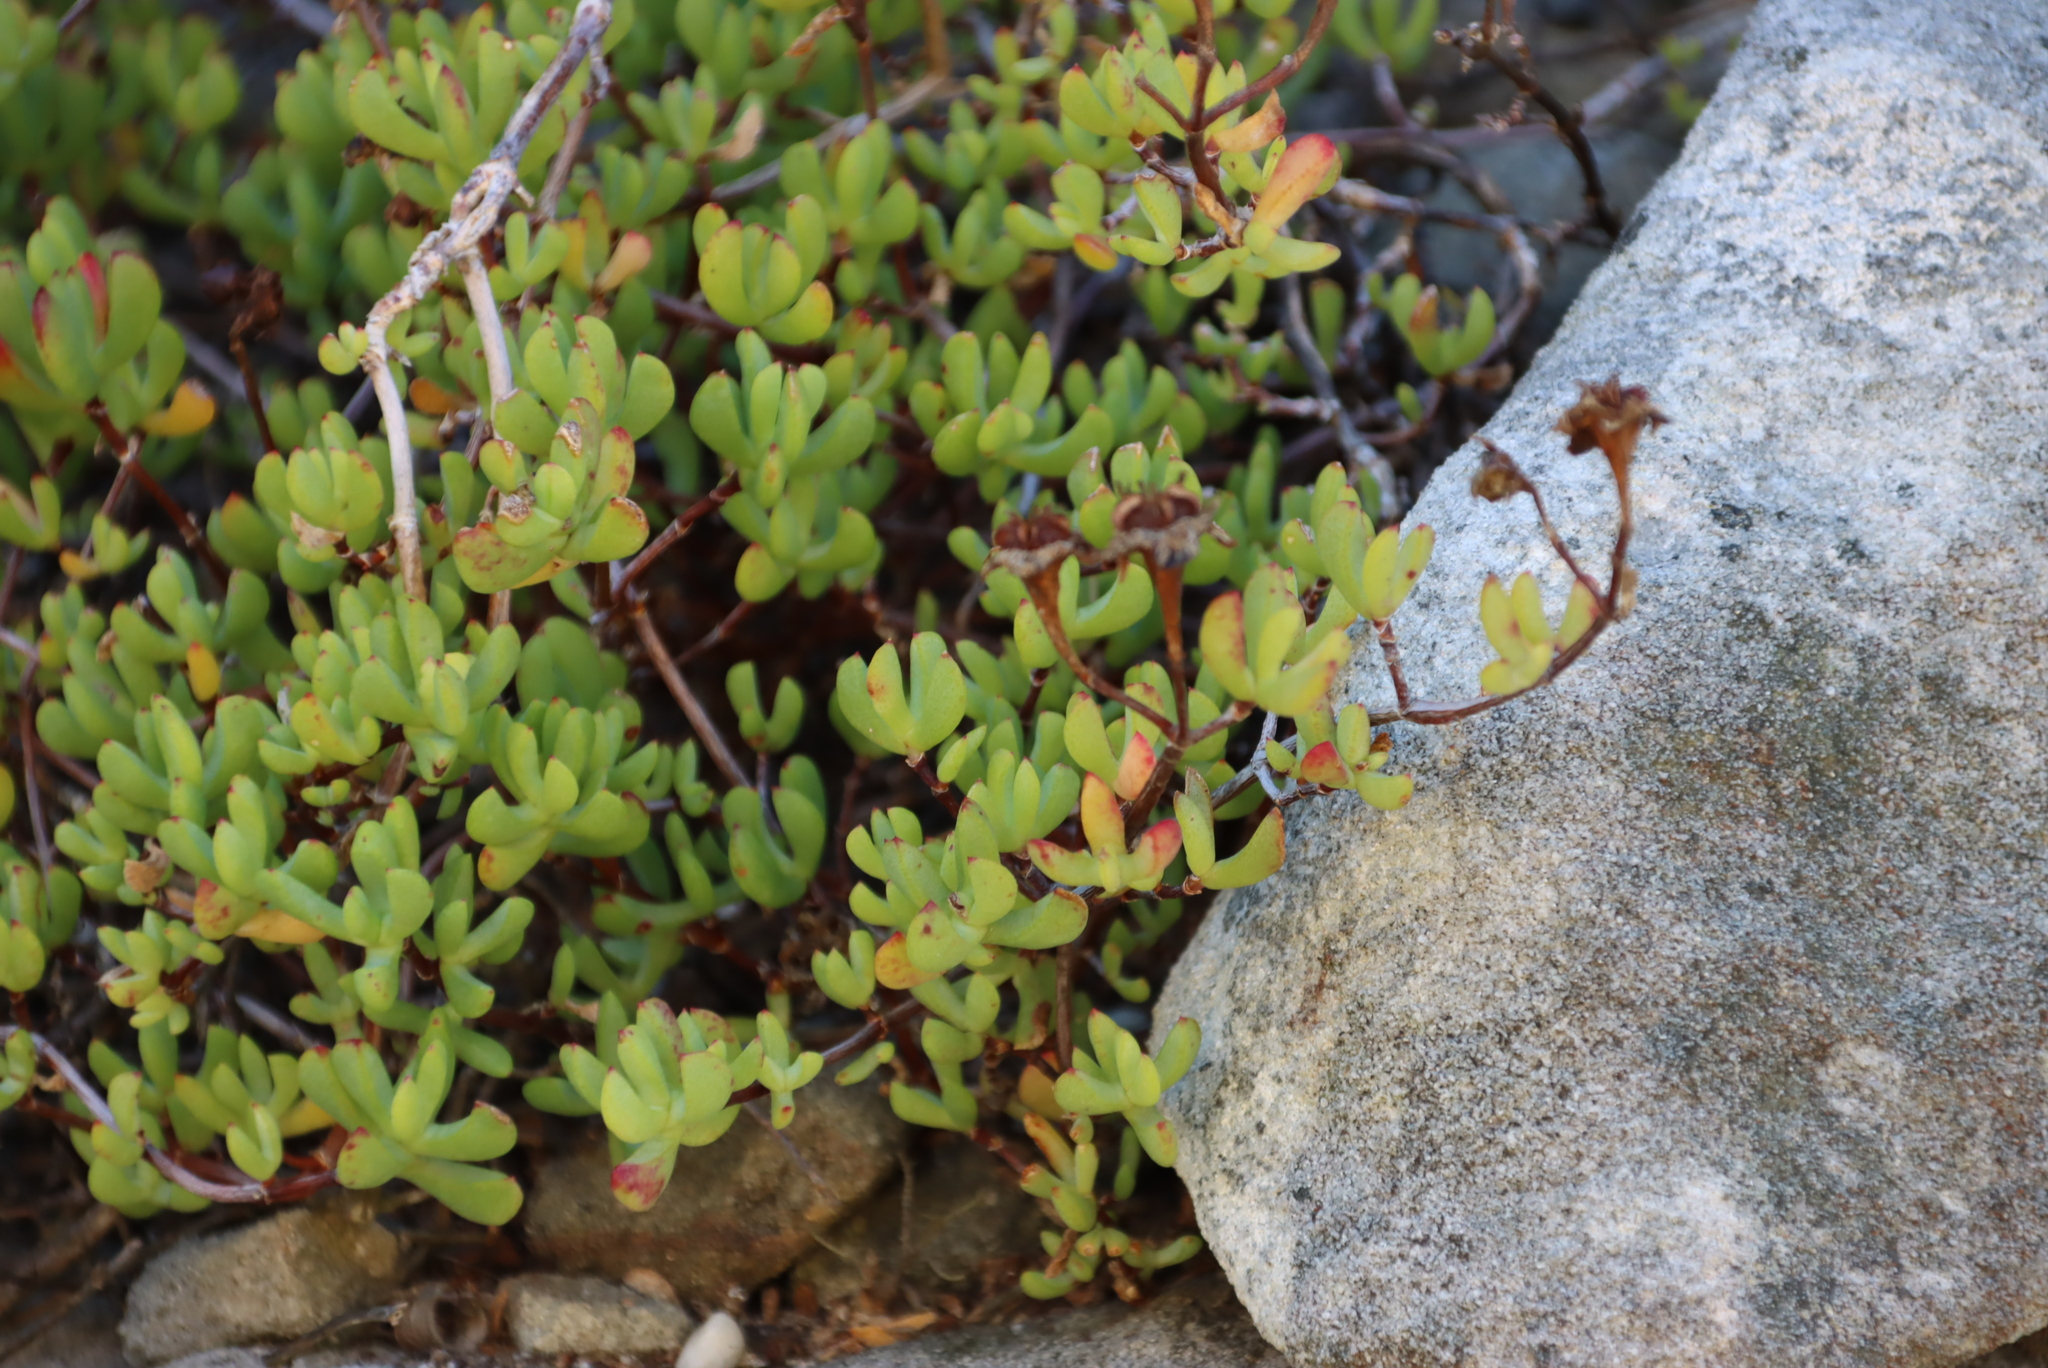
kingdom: Plantae
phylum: Tracheophyta
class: Magnoliopsida
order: Caryophyllales
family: Aizoaceae
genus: Oscularia
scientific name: Oscularia falciformis
